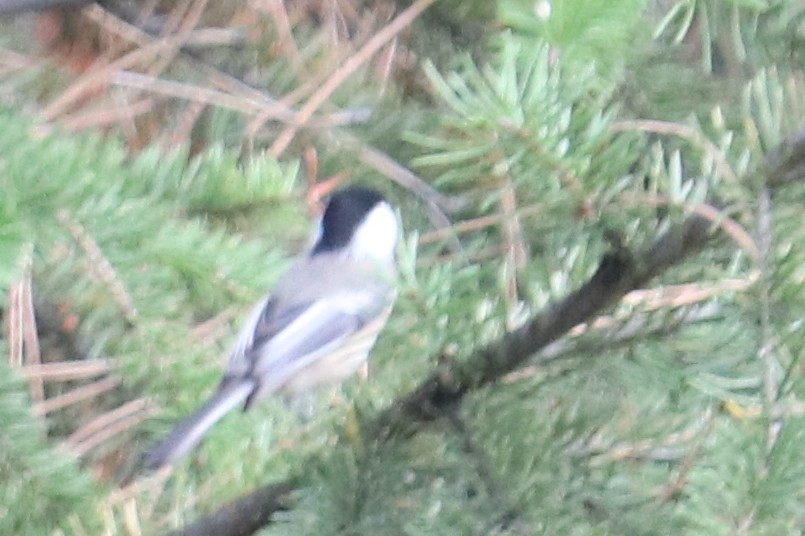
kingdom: Animalia
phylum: Chordata
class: Aves
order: Passeriformes
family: Paridae
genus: Poecile
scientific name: Poecile atricapillus
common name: Black-capped chickadee
